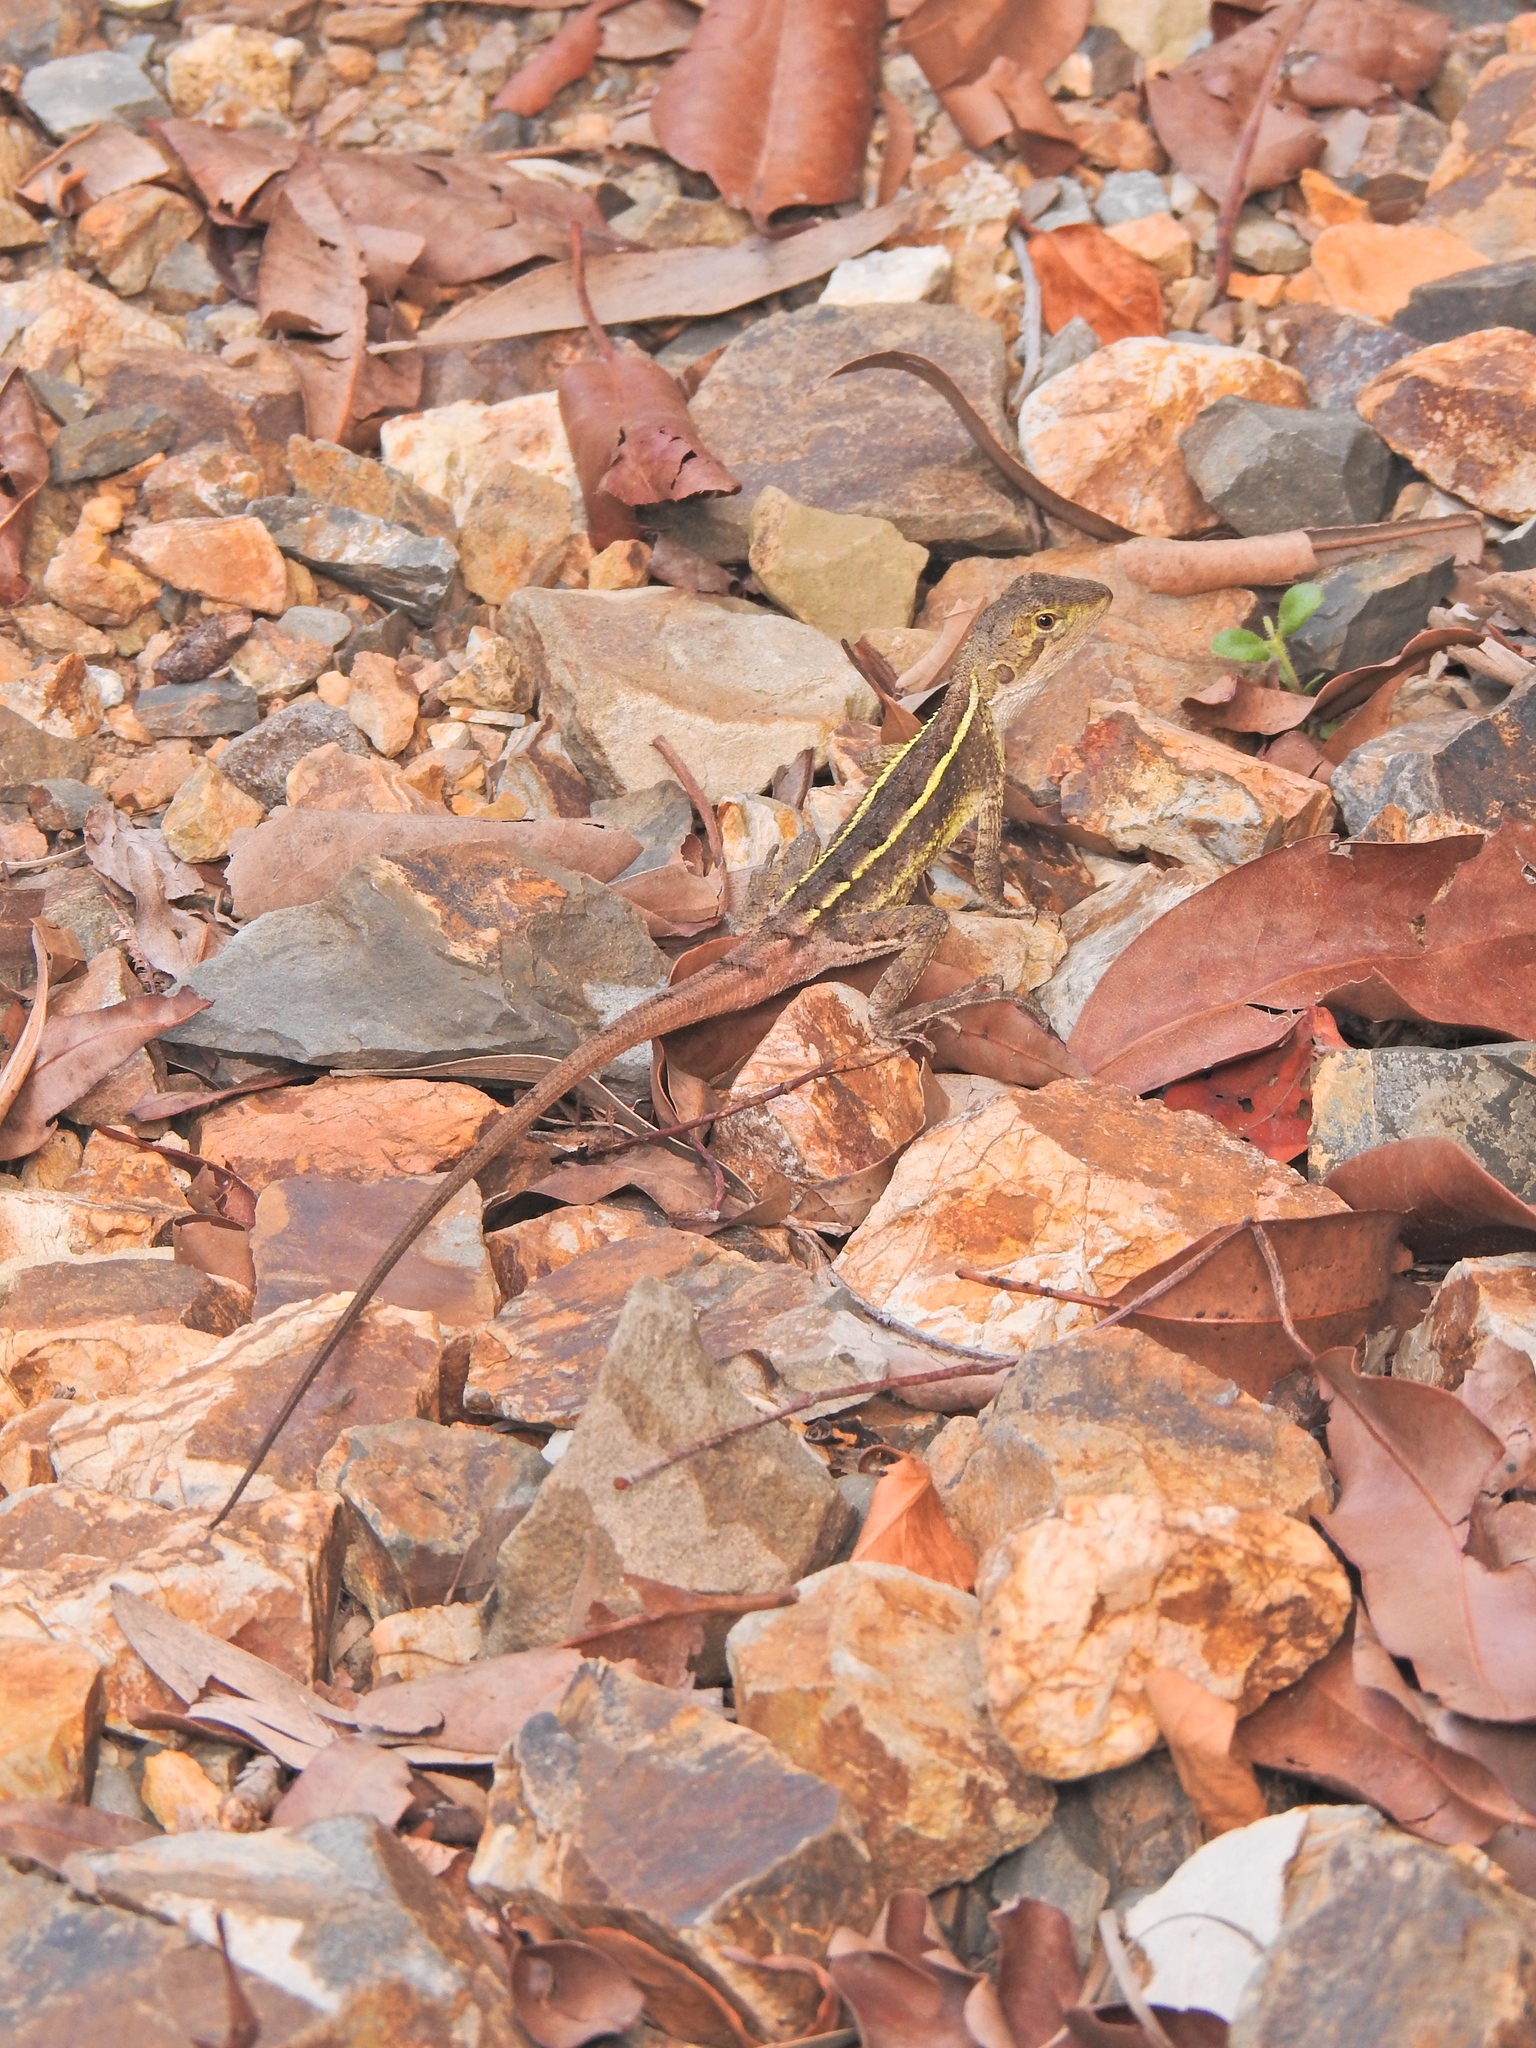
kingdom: Animalia
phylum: Chordata
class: Squamata
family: Agamidae
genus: Diporiphora
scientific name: Diporiphora nobbi
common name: Nobbi
